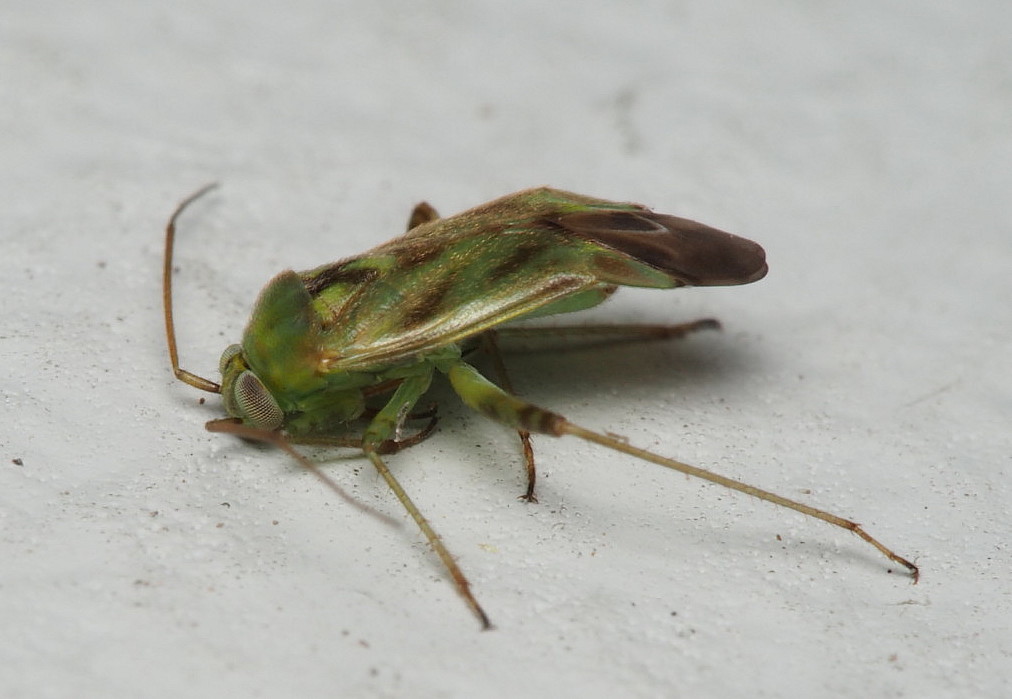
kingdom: Animalia
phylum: Arthropoda
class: Insecta
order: Hemiptera
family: Miridae
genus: Taylorilygus
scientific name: Taylorilygus apicalis
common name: Plant bug
